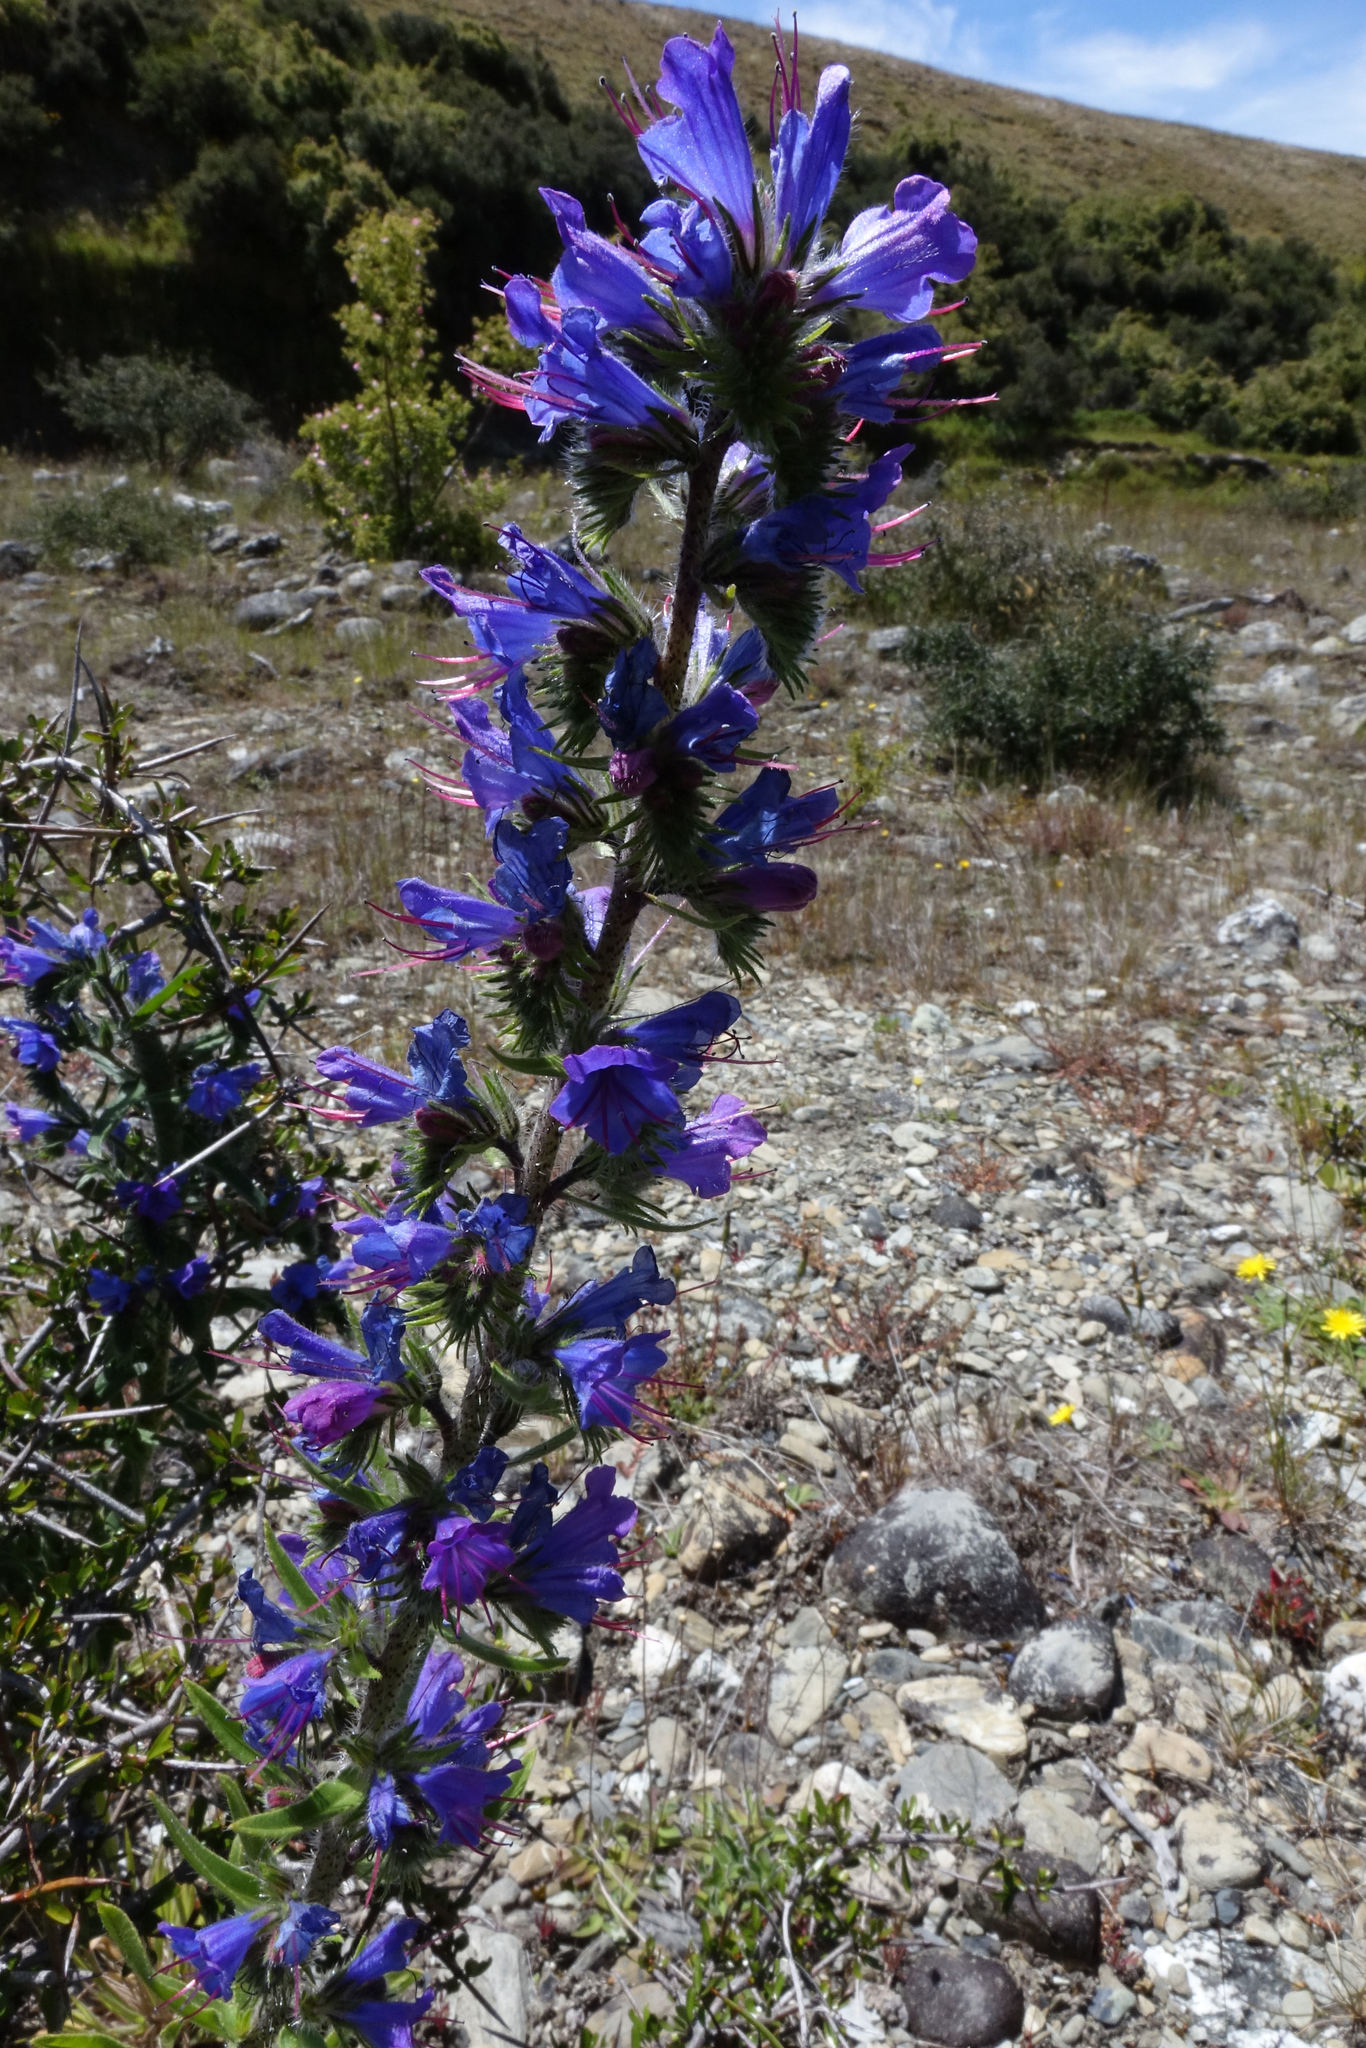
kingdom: Plantae
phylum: Tracheophyta
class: Magnoliopsida
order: Boraginales
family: Boraginaceae
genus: Echium
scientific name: Echium vulgare
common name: Common viper's bugloss
